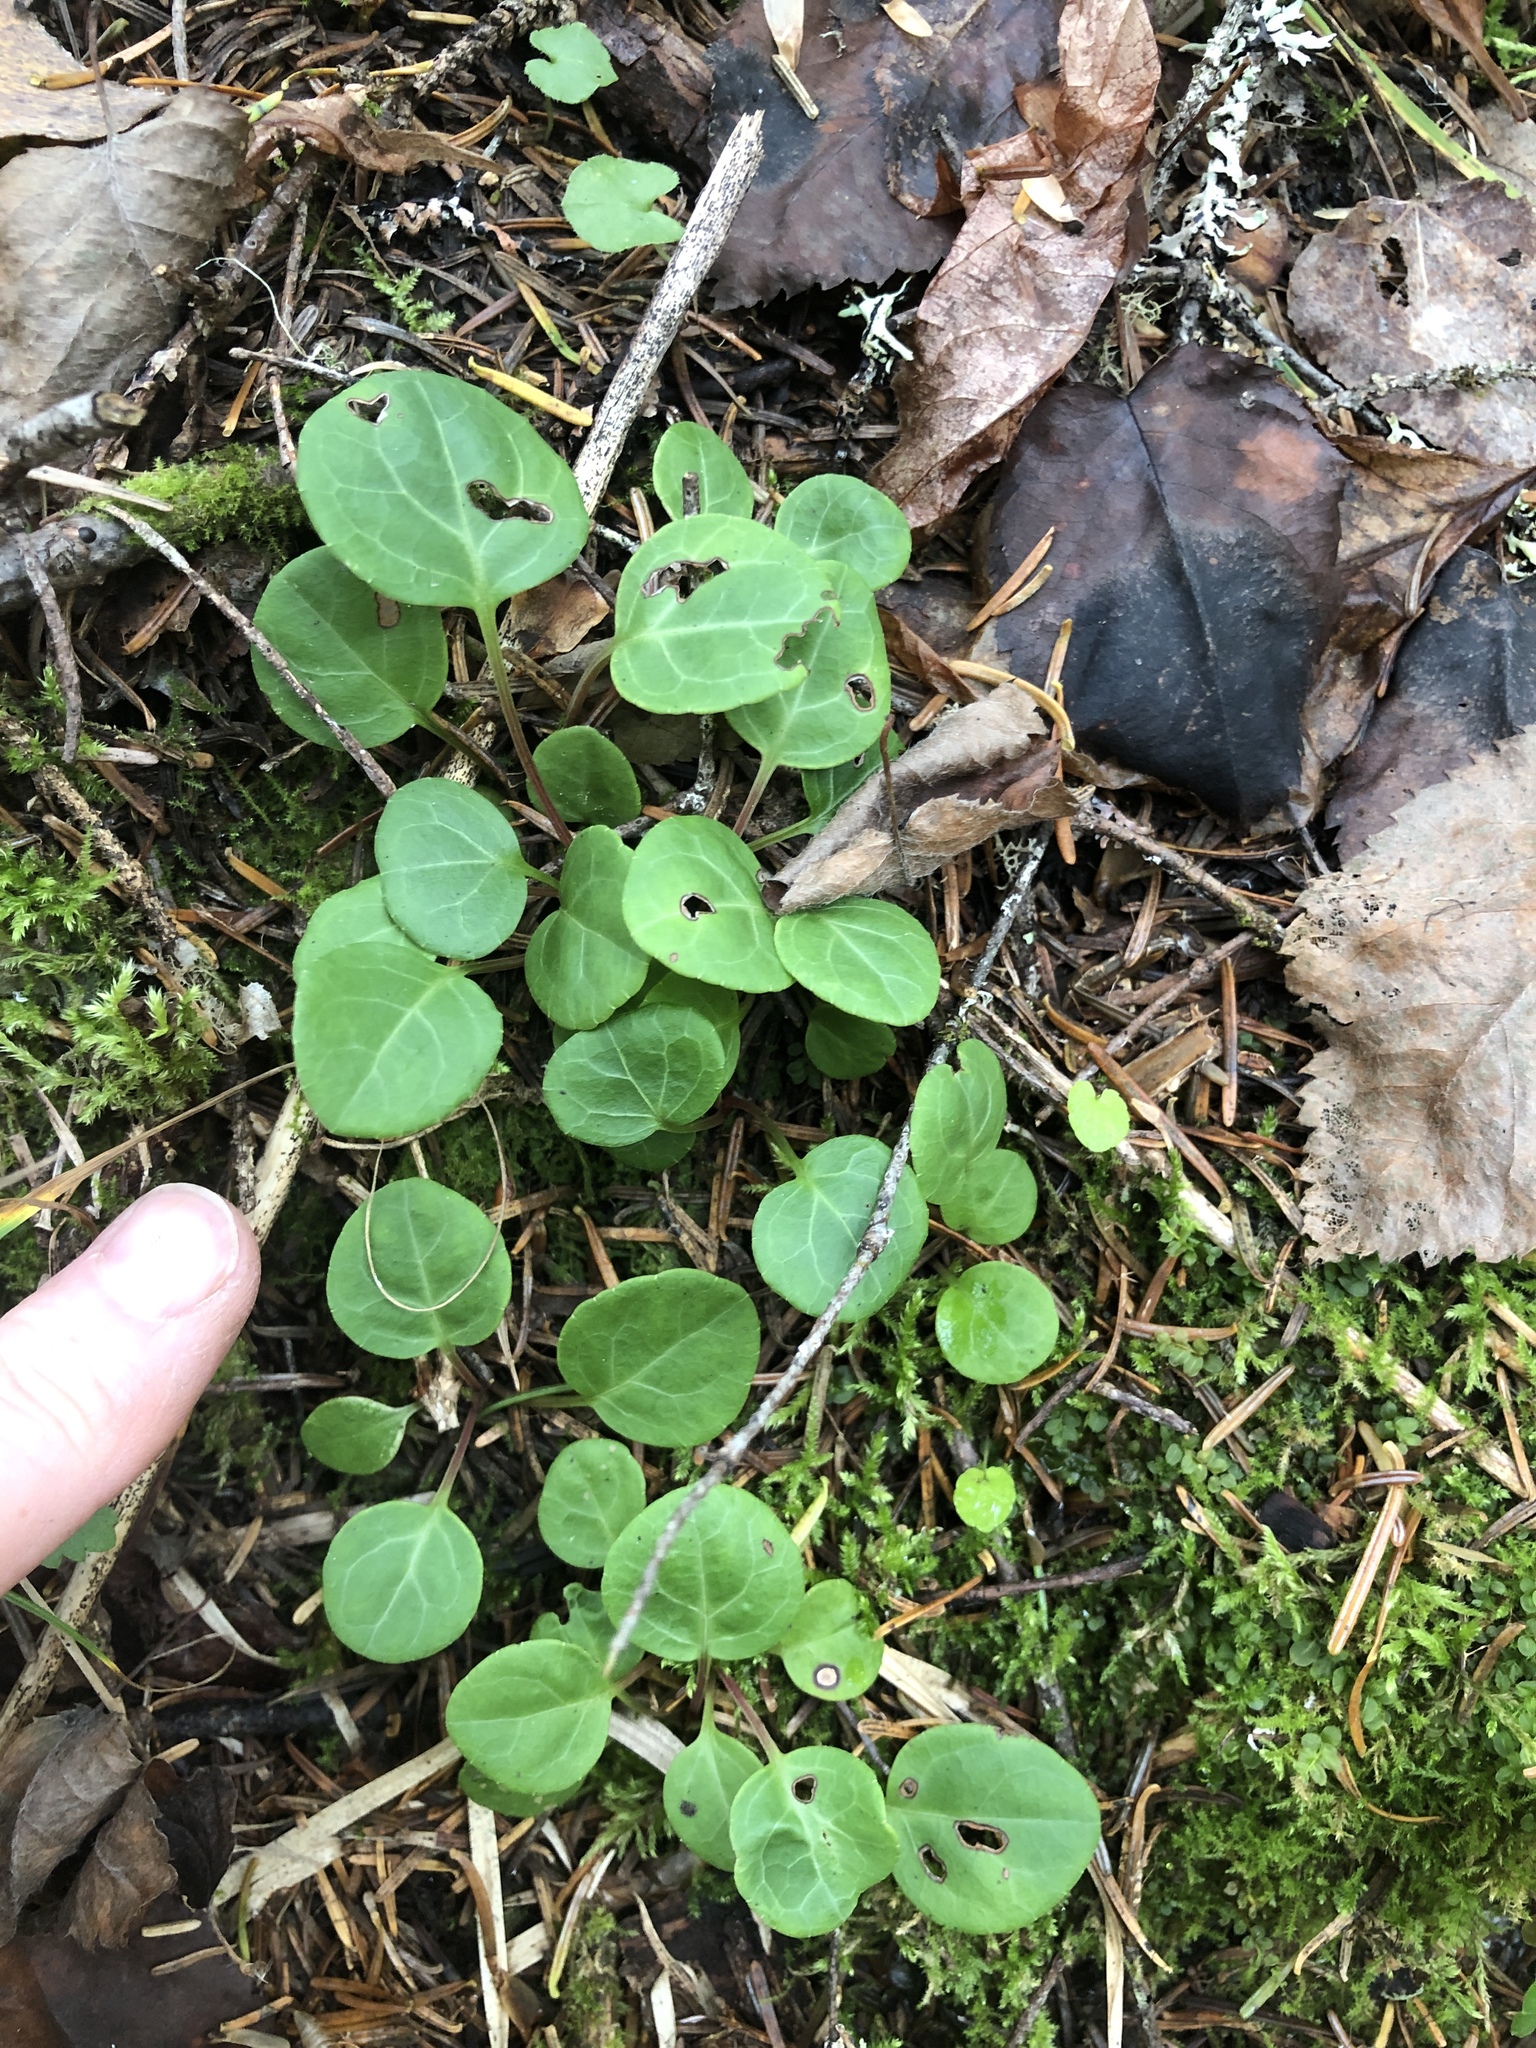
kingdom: Plantae
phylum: Tracheophyta
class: Magnoliopsida
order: Ericales
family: Ericaceae
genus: Pyrola
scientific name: Pyrola chlorantha
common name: Green wintergreen
